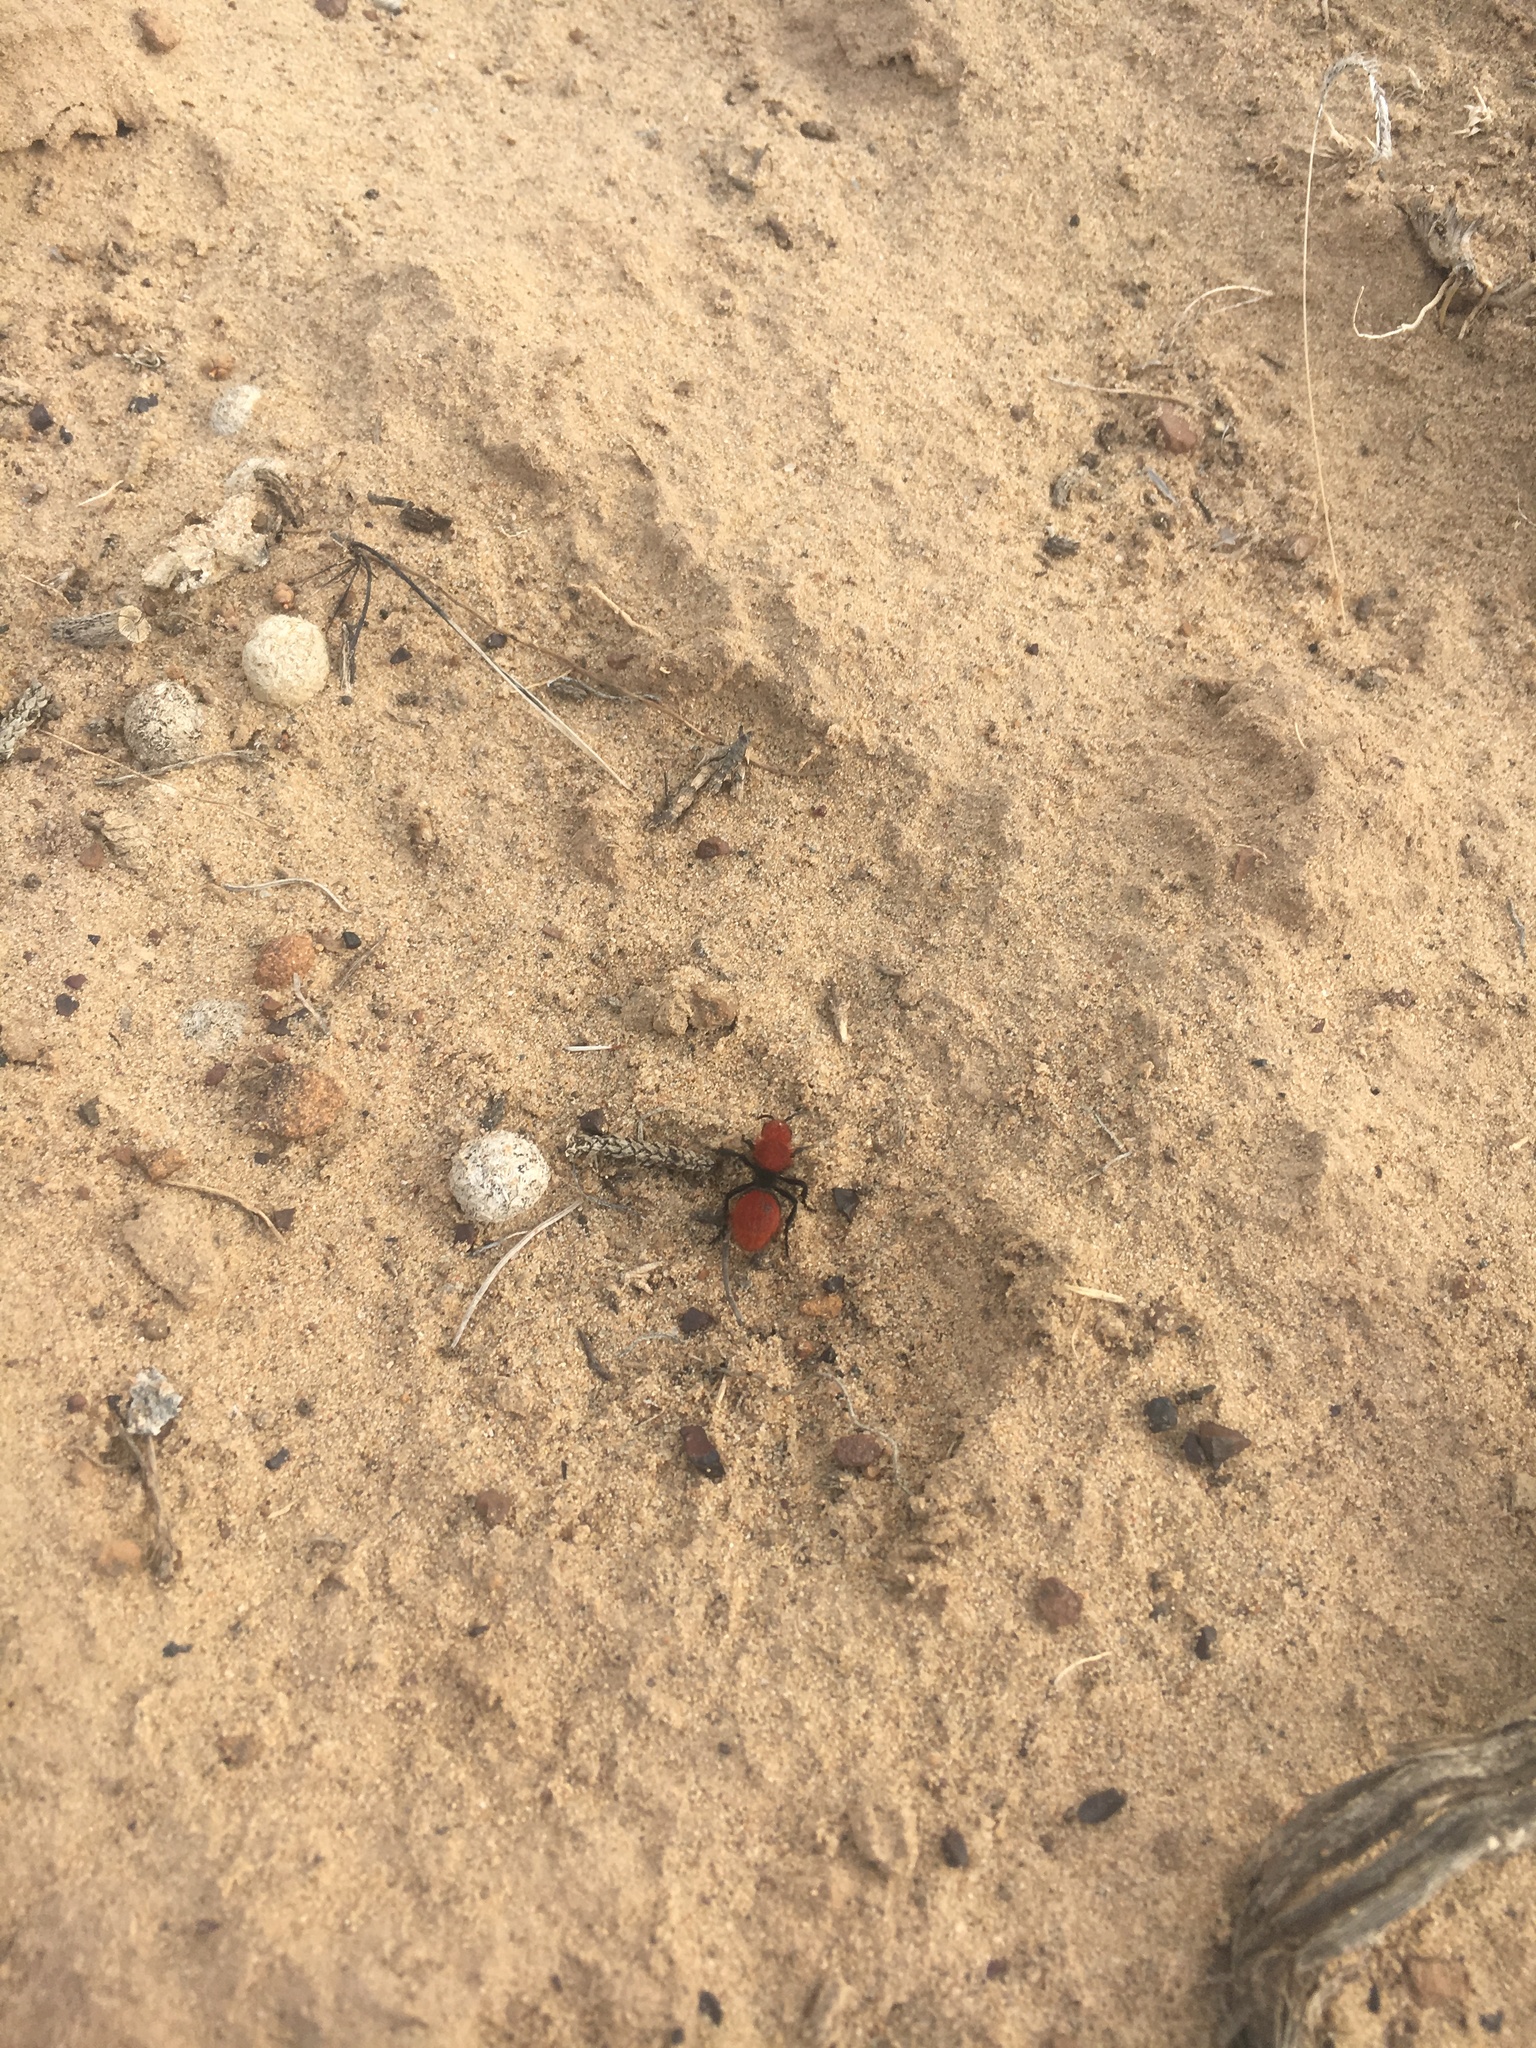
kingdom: Animalia
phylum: Arthropoda
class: Insecta
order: Hymenoptera
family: Mutillidae
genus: Dasymutilla
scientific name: Dasymutilla vestita
